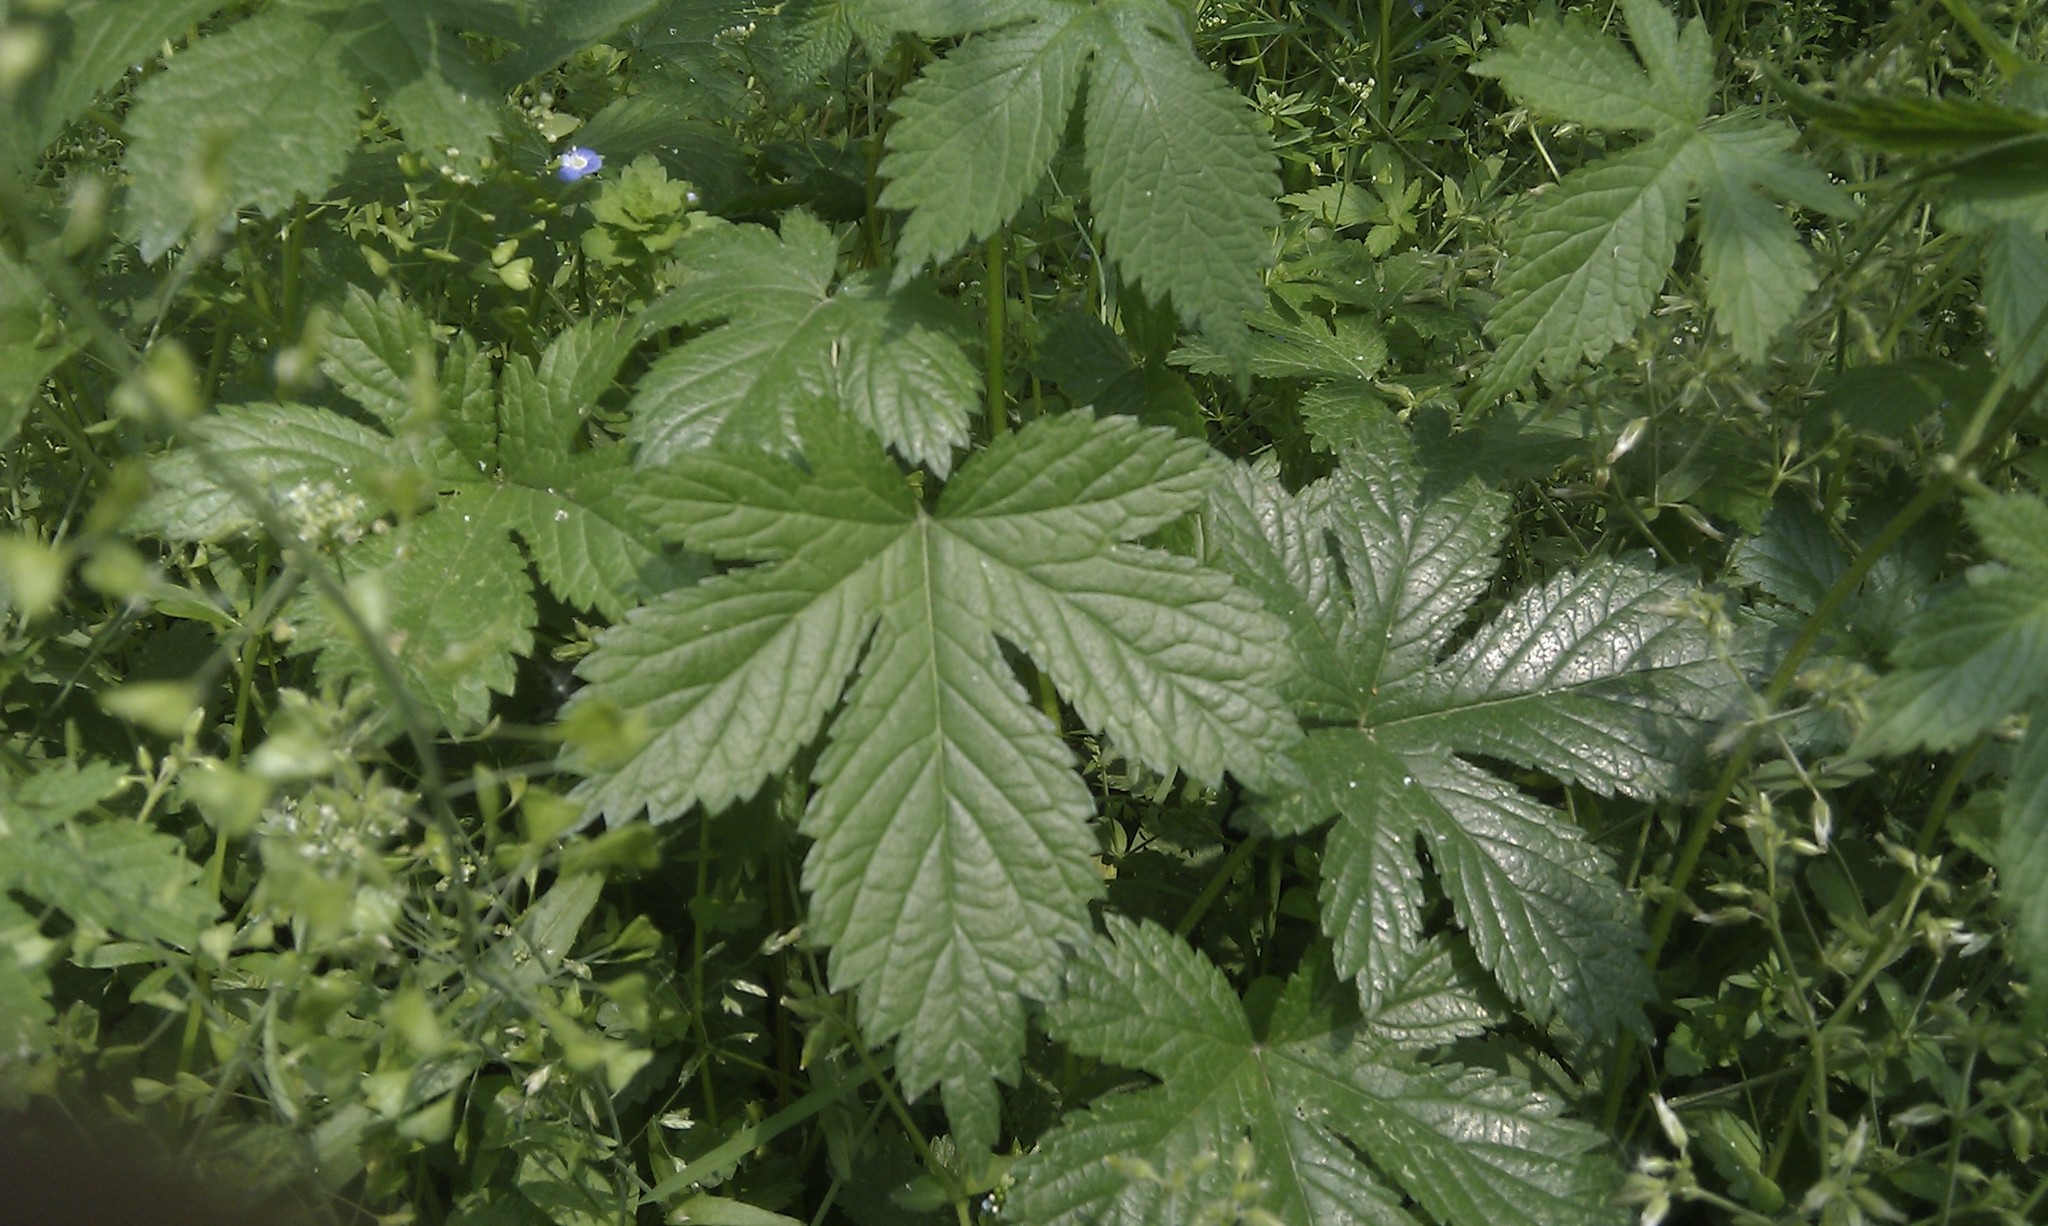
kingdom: Plantae
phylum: Tracheophyta
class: Magnoliopsida
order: Rosales
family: Cannabaceae
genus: Humulus
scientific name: Humulus scandens
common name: Japanese hop
